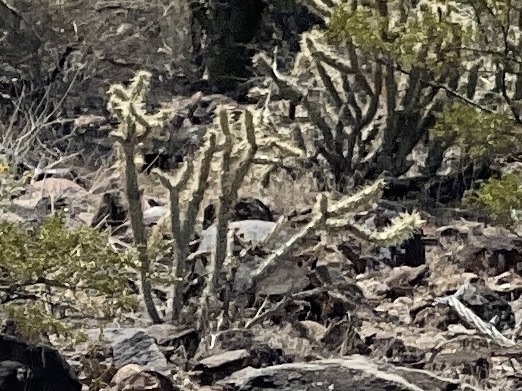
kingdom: Plantae
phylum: Tracheophyta
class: Magnoliopsida
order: Caryophyllales
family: Cactaceae
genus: Cylindropuntia
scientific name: Cylindropuntia acanthocarpa
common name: Buckhorn cholla
